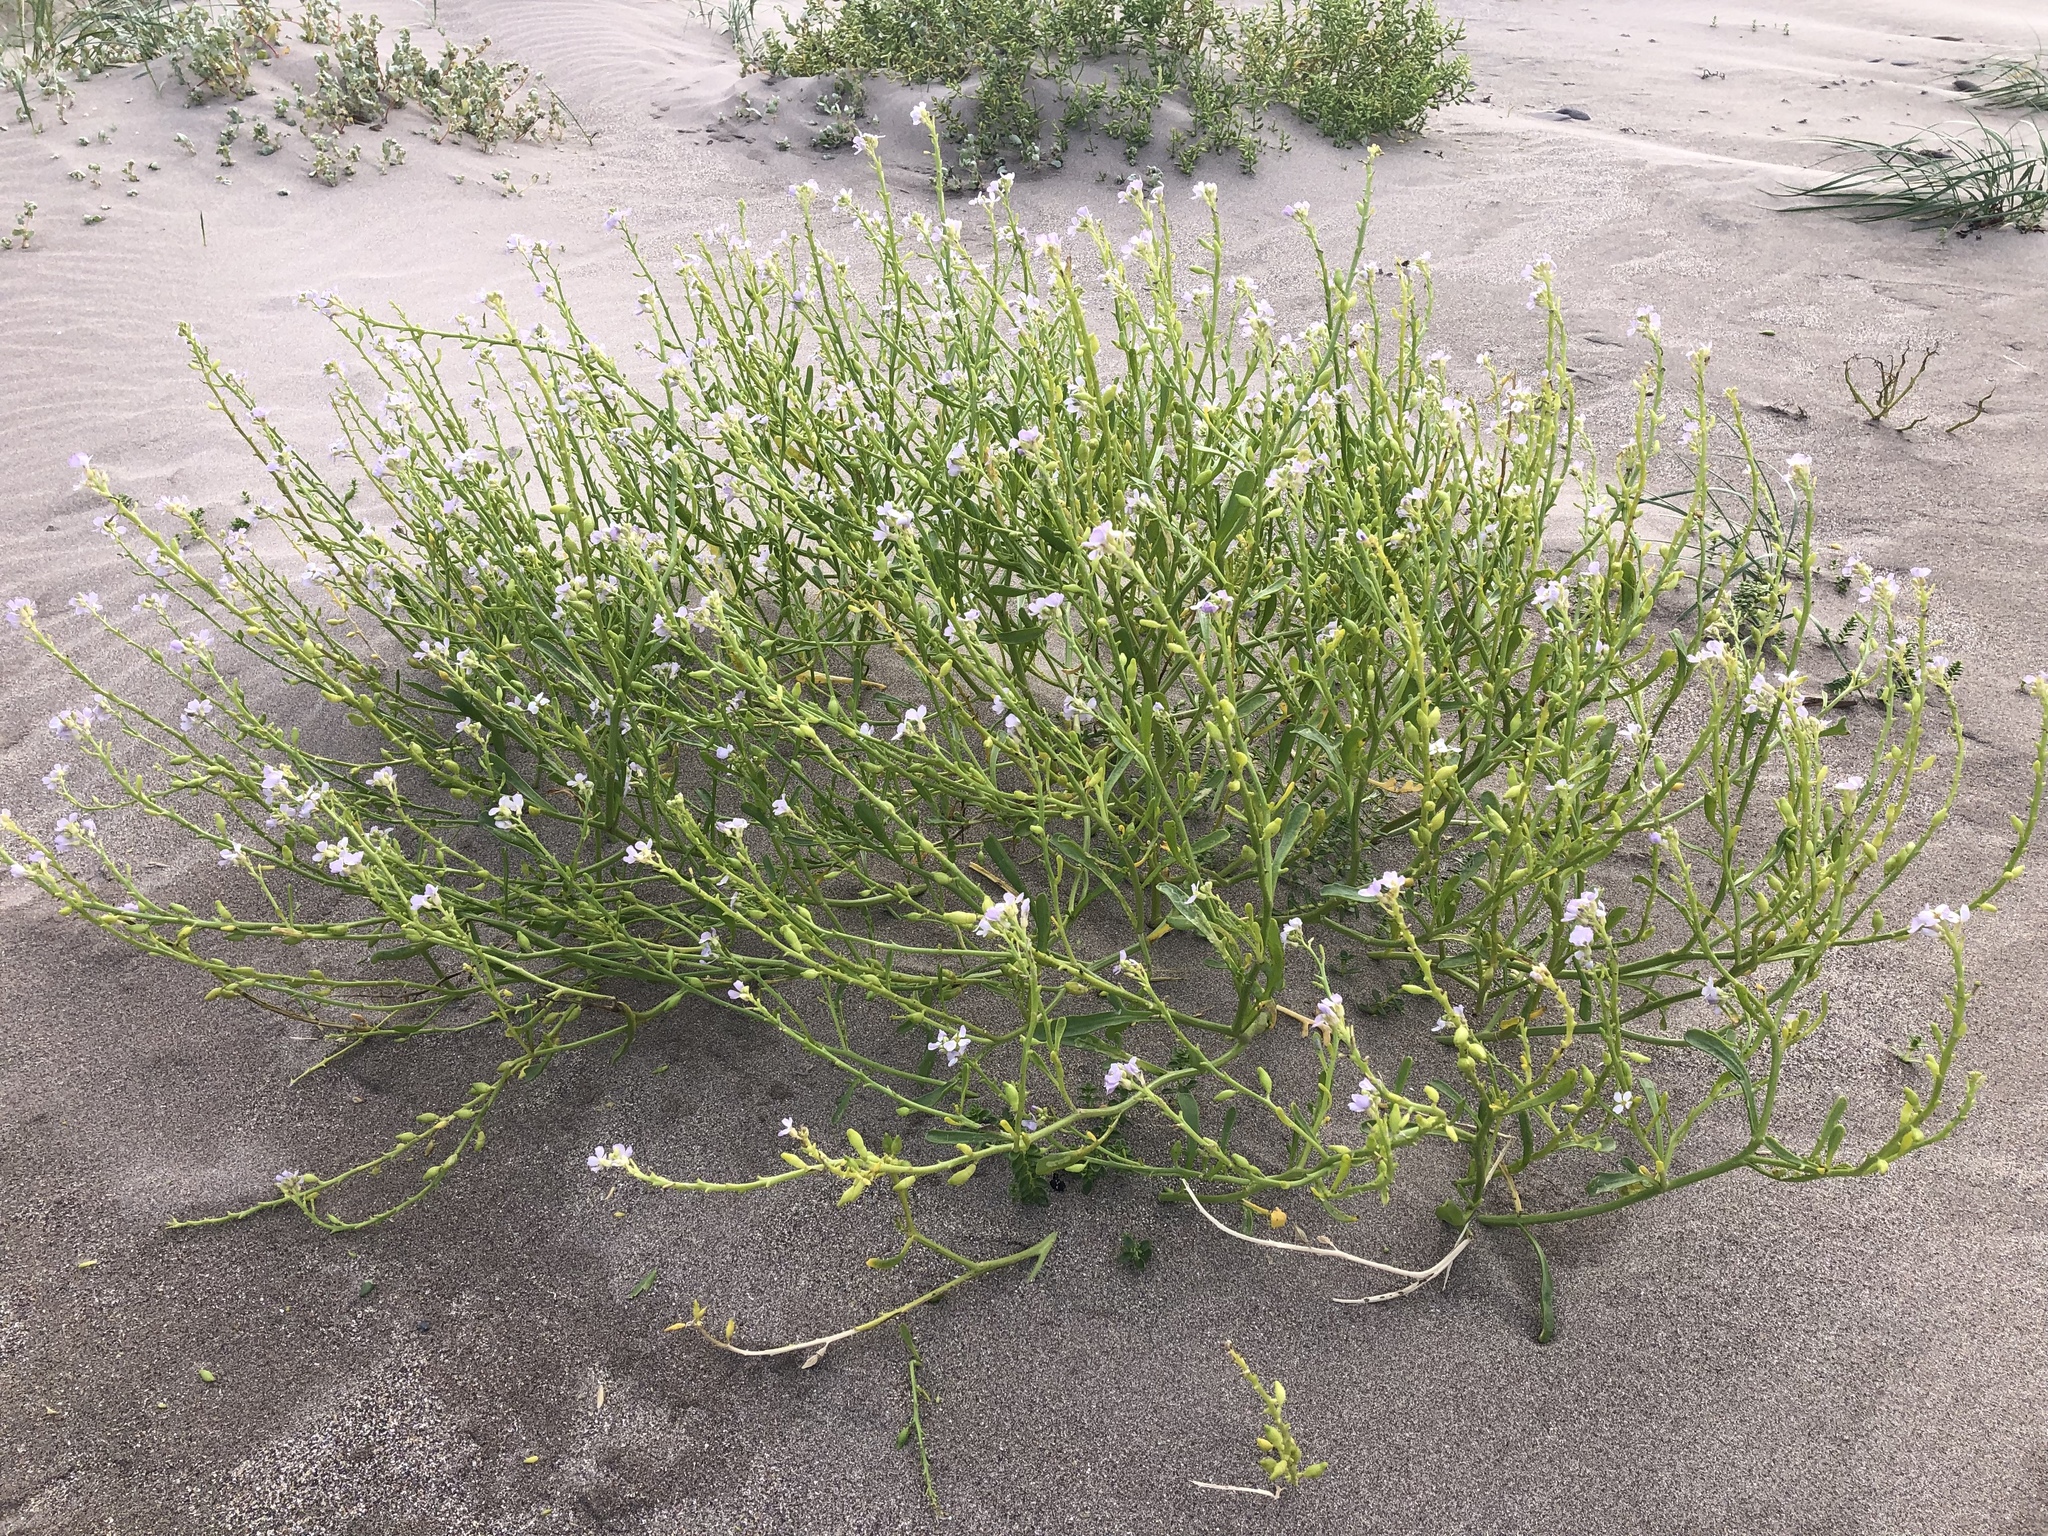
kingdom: Plantae
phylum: Tracheophyta
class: Magnoliopsida
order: Brassicales
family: Brassicaceae
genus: Cakile
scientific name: Cakile maritima
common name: Sea rocket
